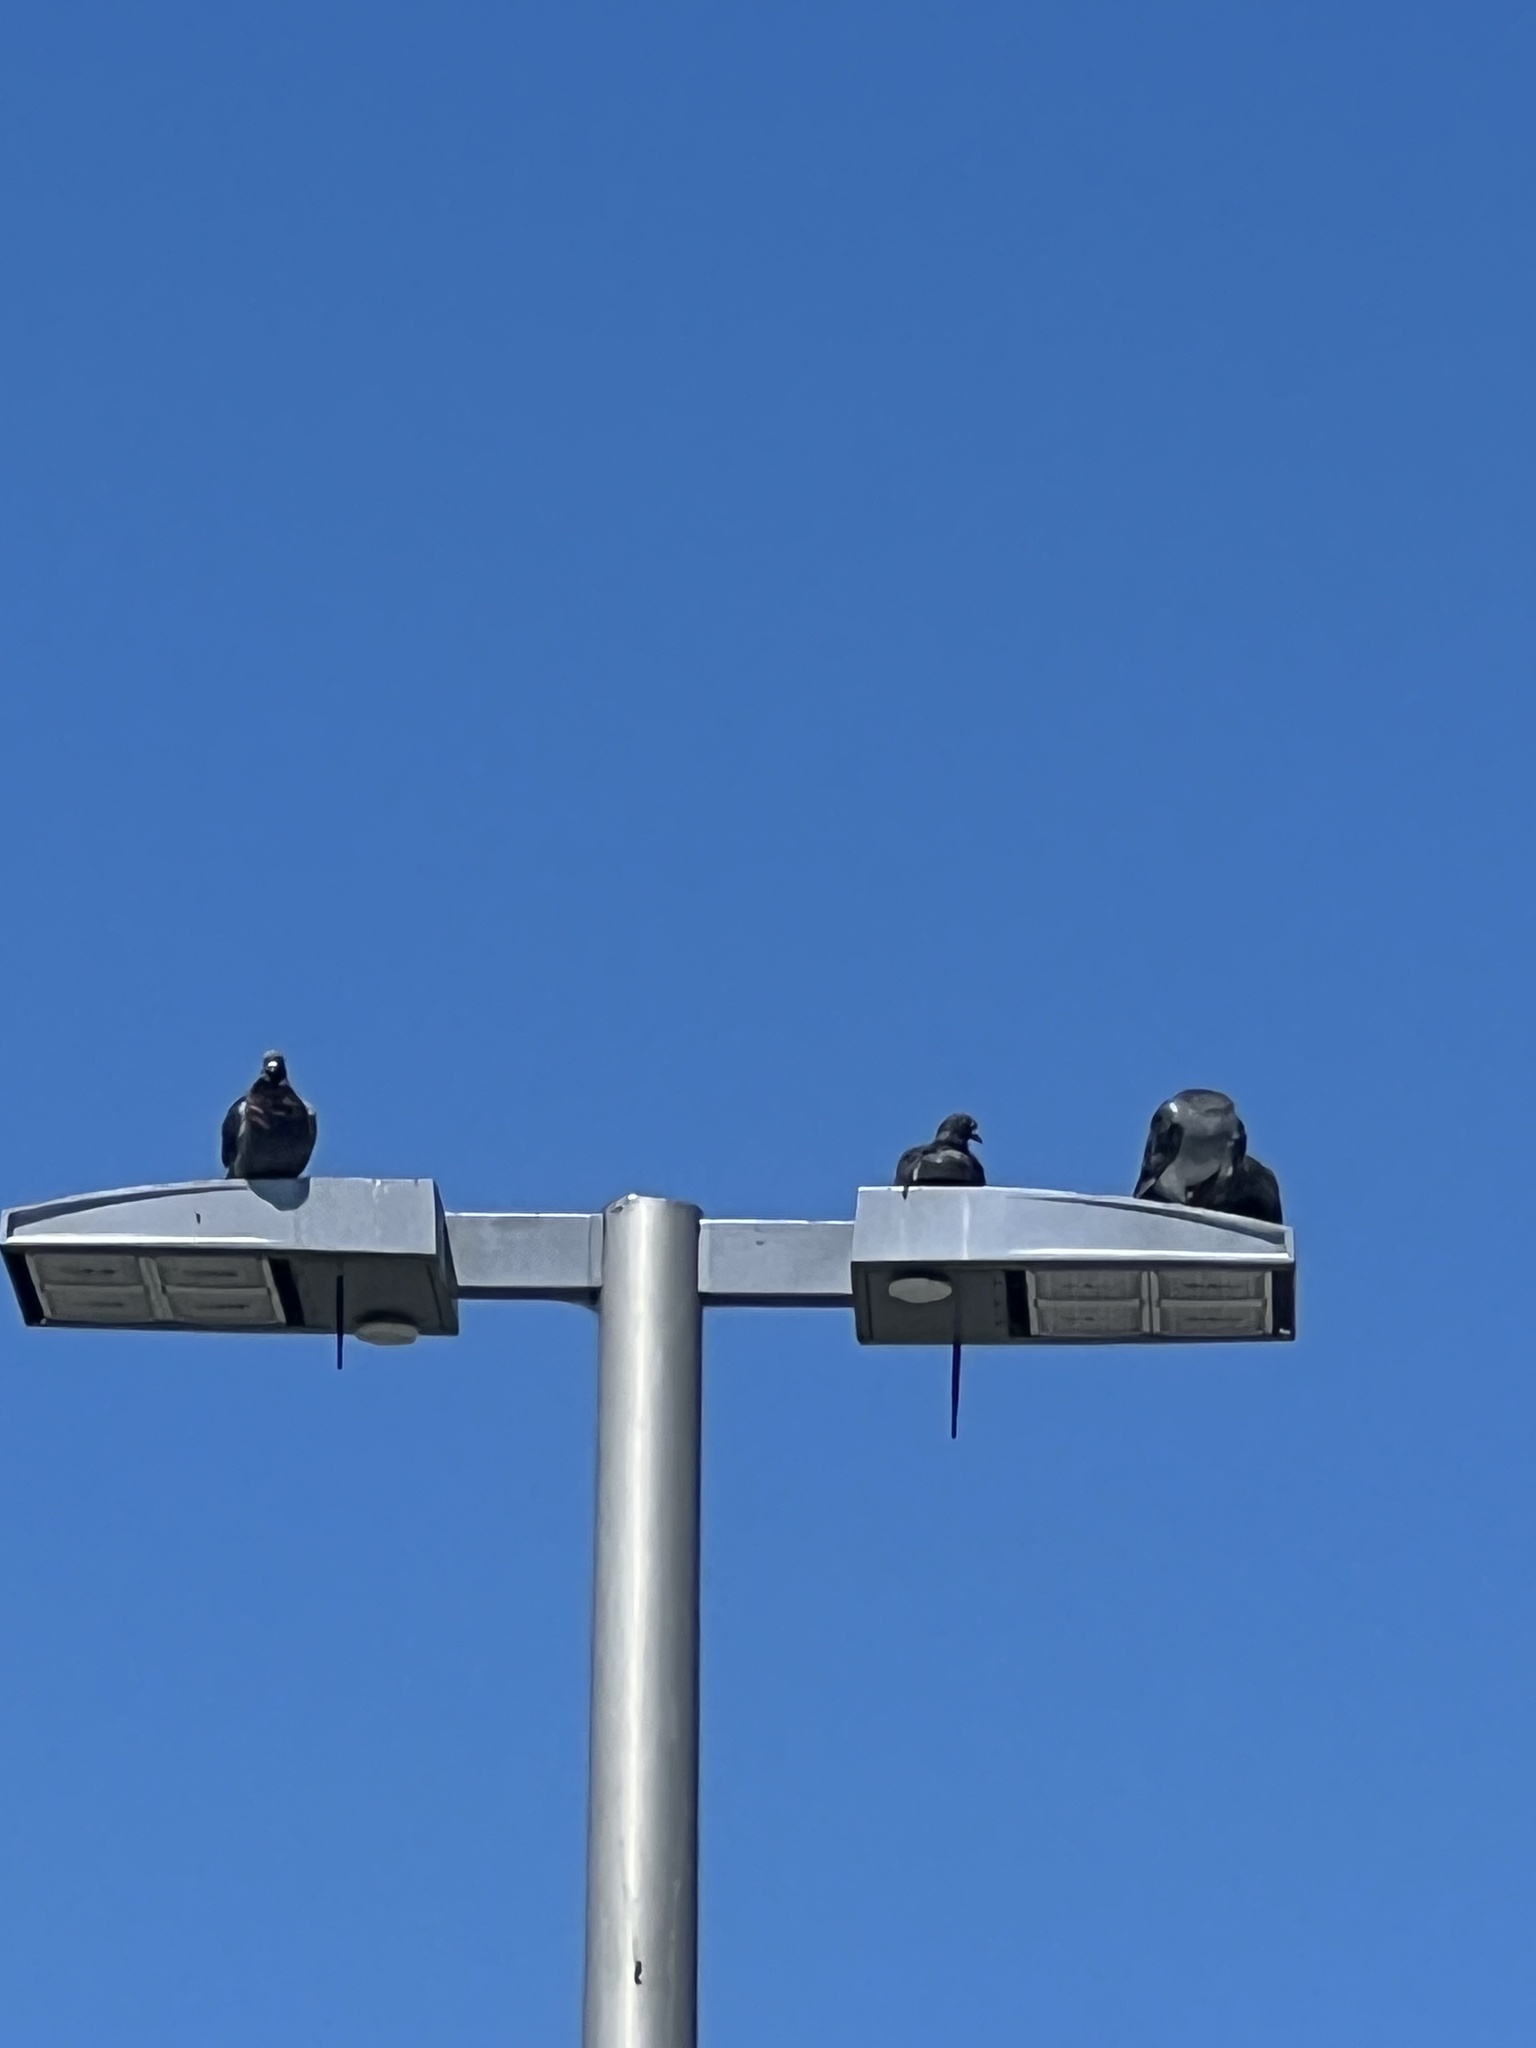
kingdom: Animalia
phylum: Chordata
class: Aves
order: Columbiformes
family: Columbidae
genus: Columba
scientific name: Columba livia
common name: Rock pigeon
